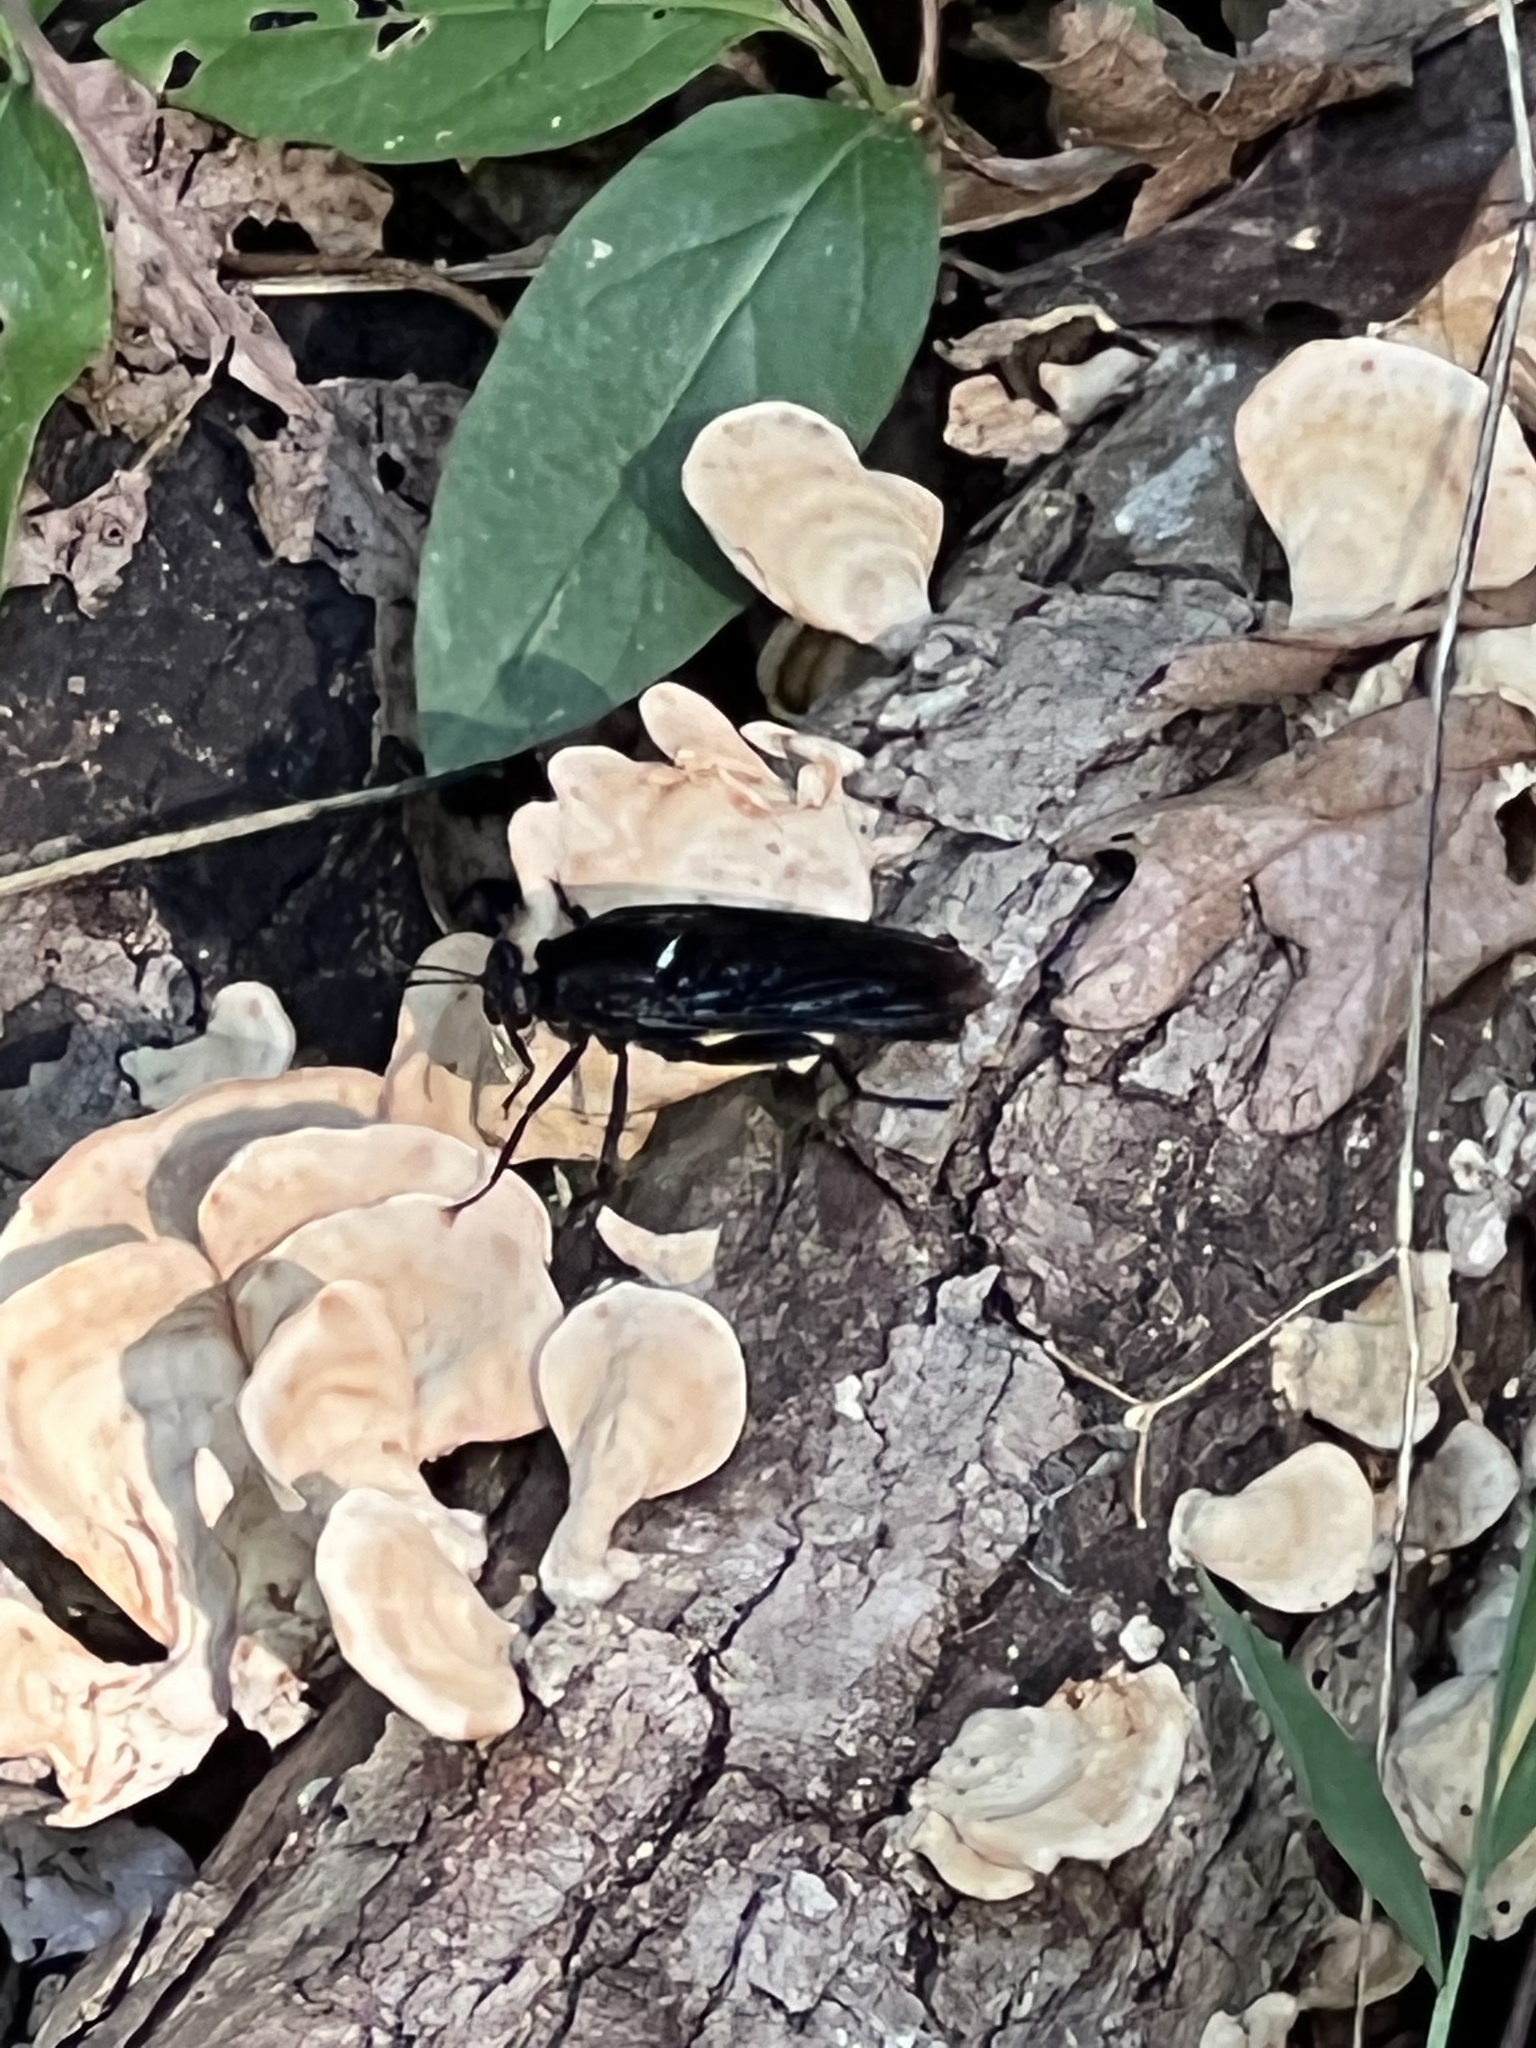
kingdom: Animalia
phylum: Arthropoda
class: Insecta
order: Diptera
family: Mydidae
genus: Mydas
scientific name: Mydas clavatus
